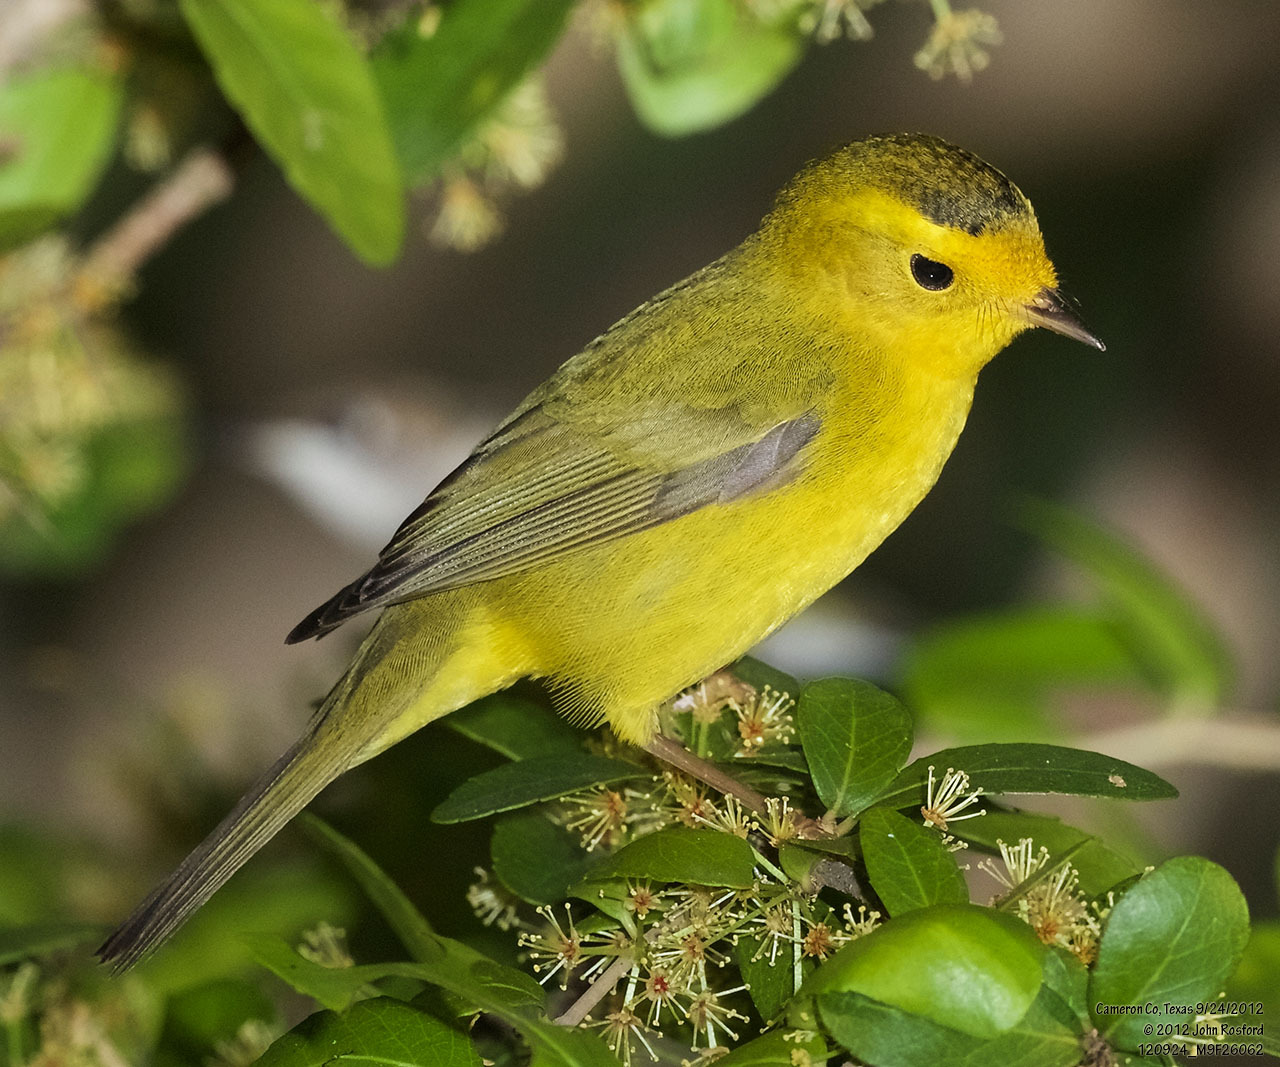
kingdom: Animalia
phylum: Chordata
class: Aves
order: Passeriformes
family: Parulidae
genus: Cardellina
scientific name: Cardellina pusilla
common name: Wilson's warbler
